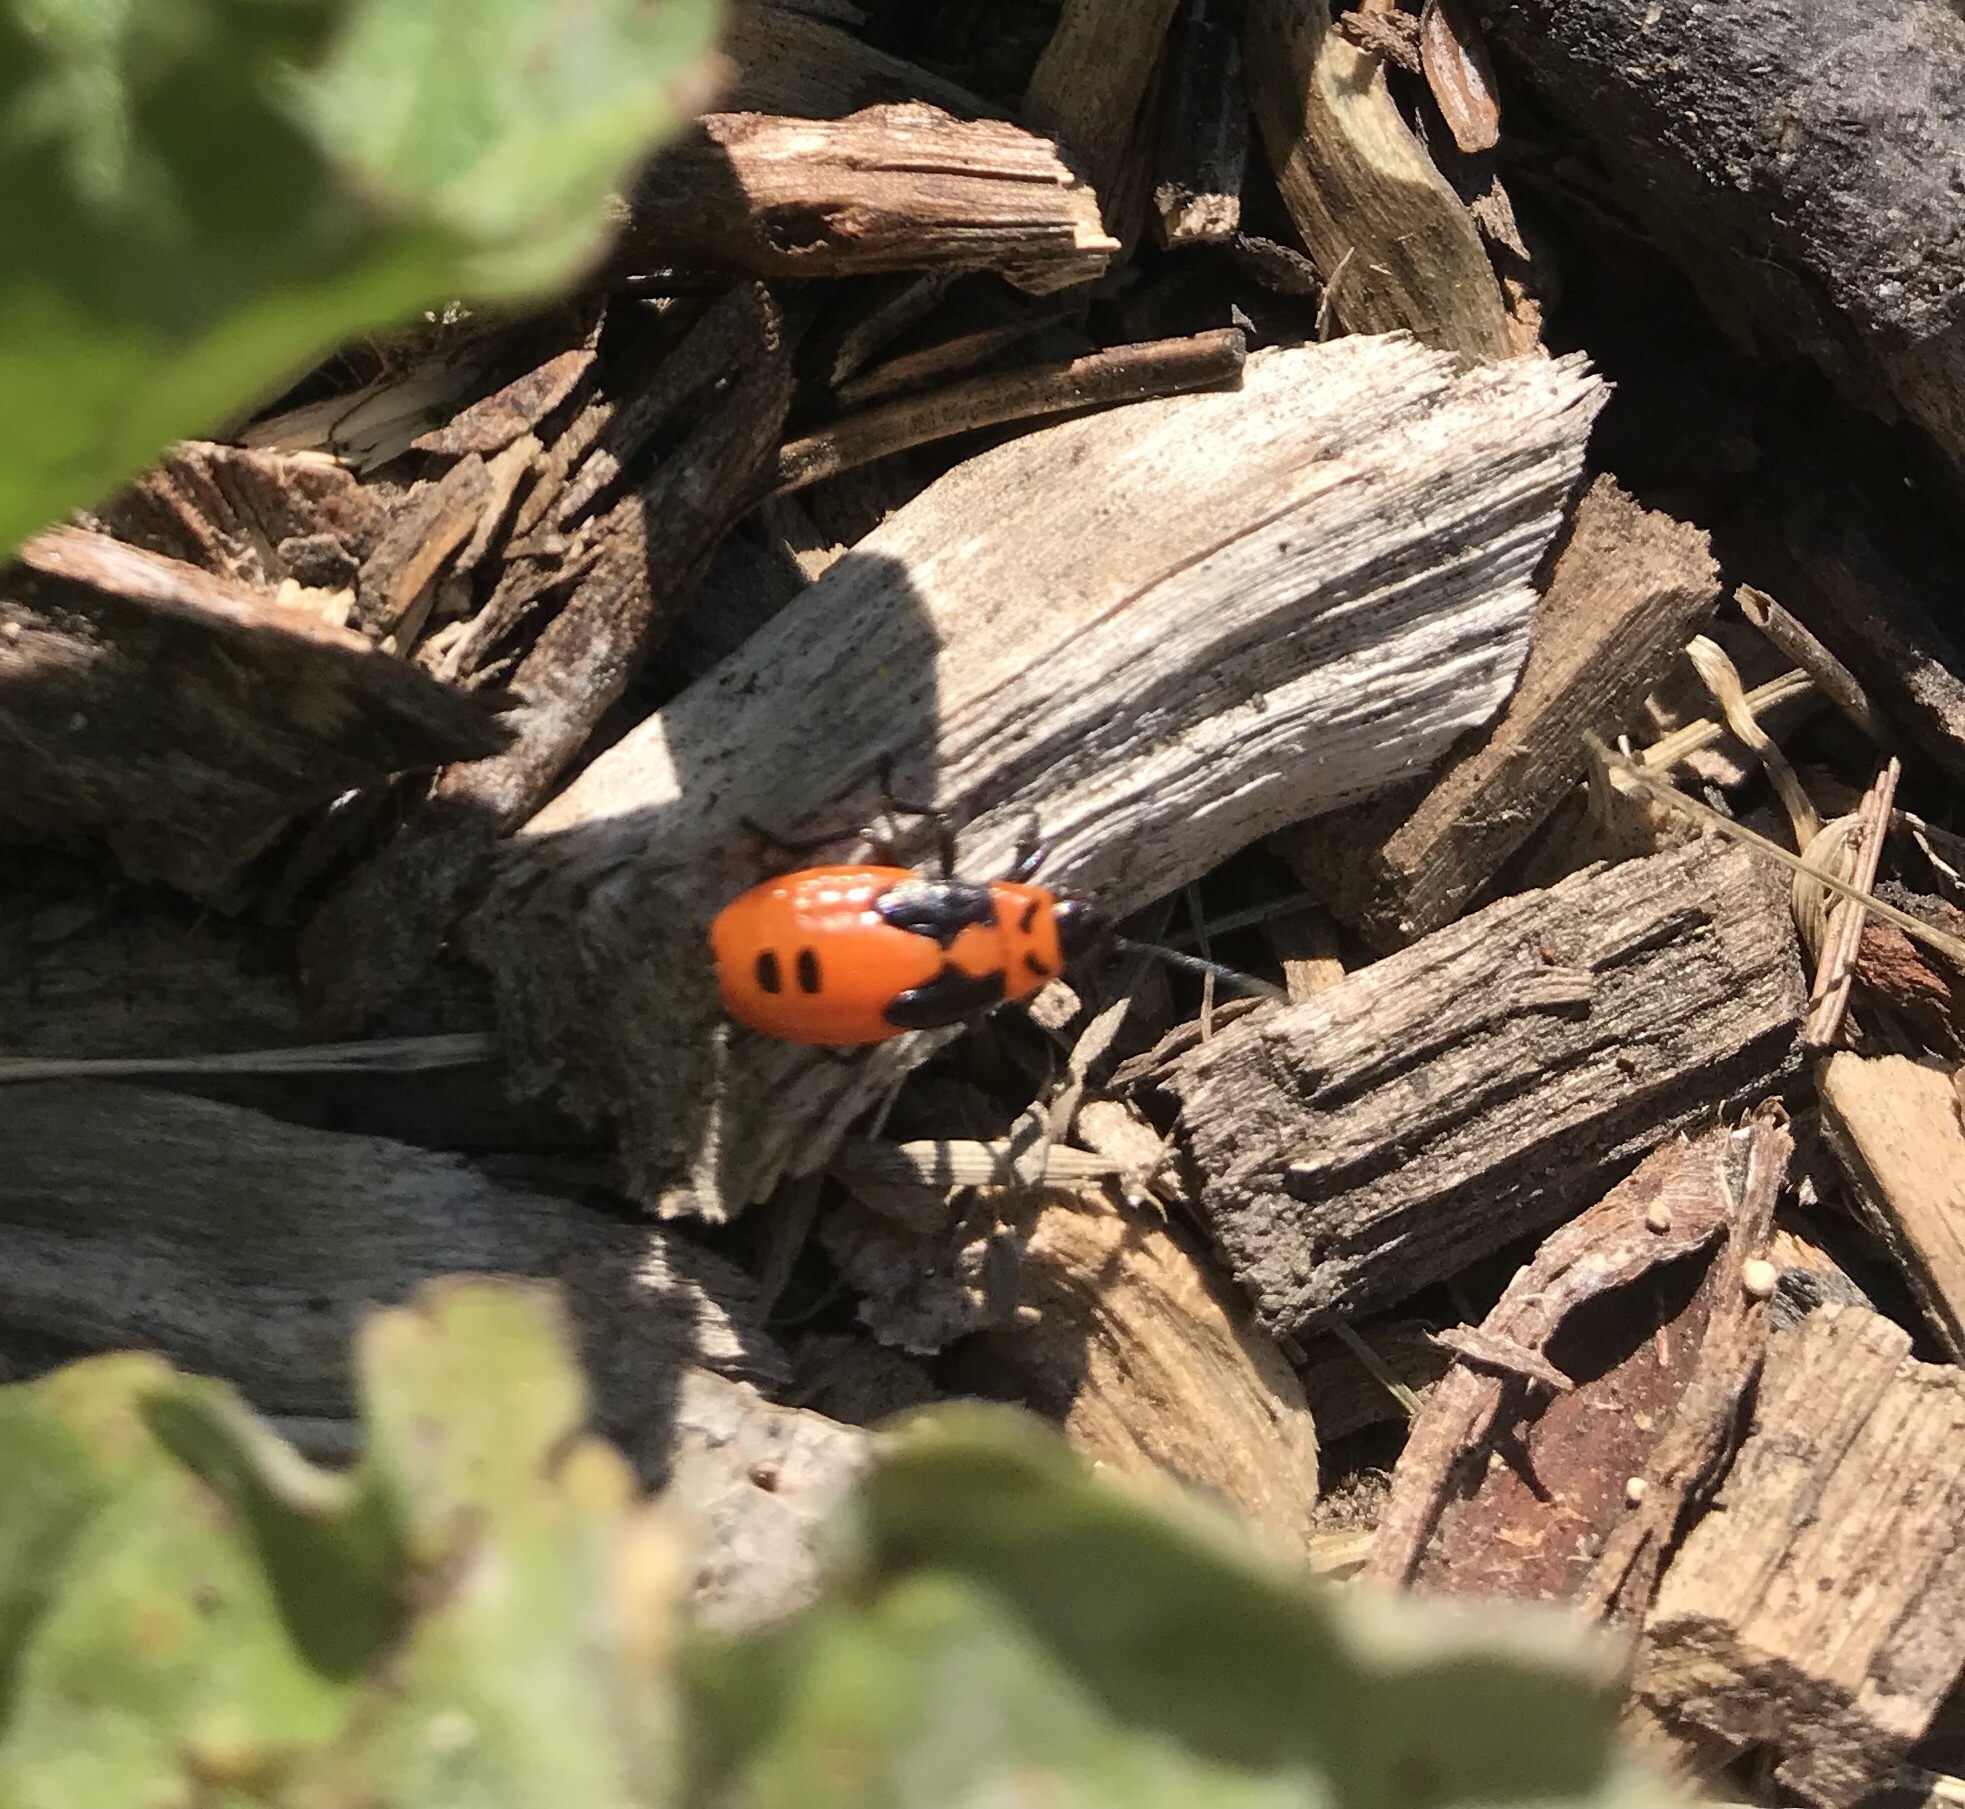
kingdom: Animalia
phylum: Arthropoda
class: Insecta
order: Hemiptera
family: Lygaeidae
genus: Lygaeus
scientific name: Lygaeus turcicus
